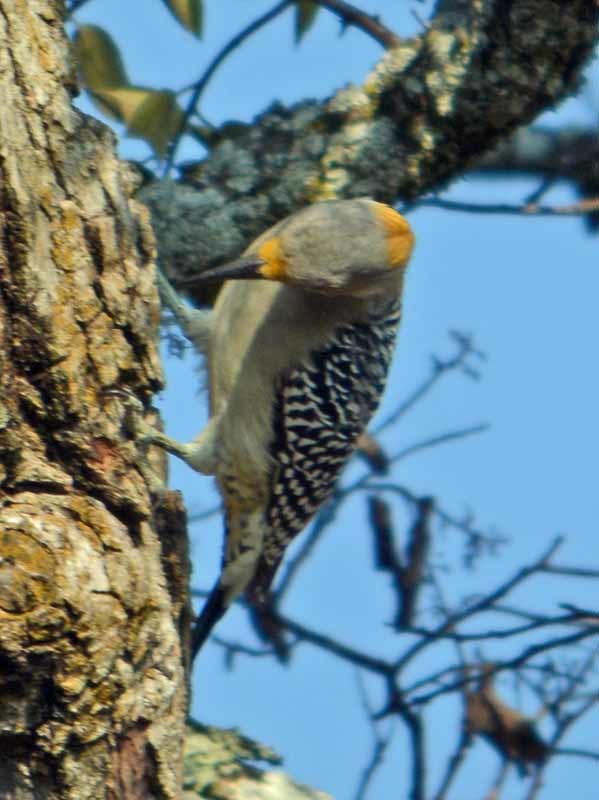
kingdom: Animalia
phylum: Chordata
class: Aves
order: Piciformes
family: Picidae
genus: Melanerpes
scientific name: Melanerpes aurifrons
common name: Golden-fronted woodpecker
